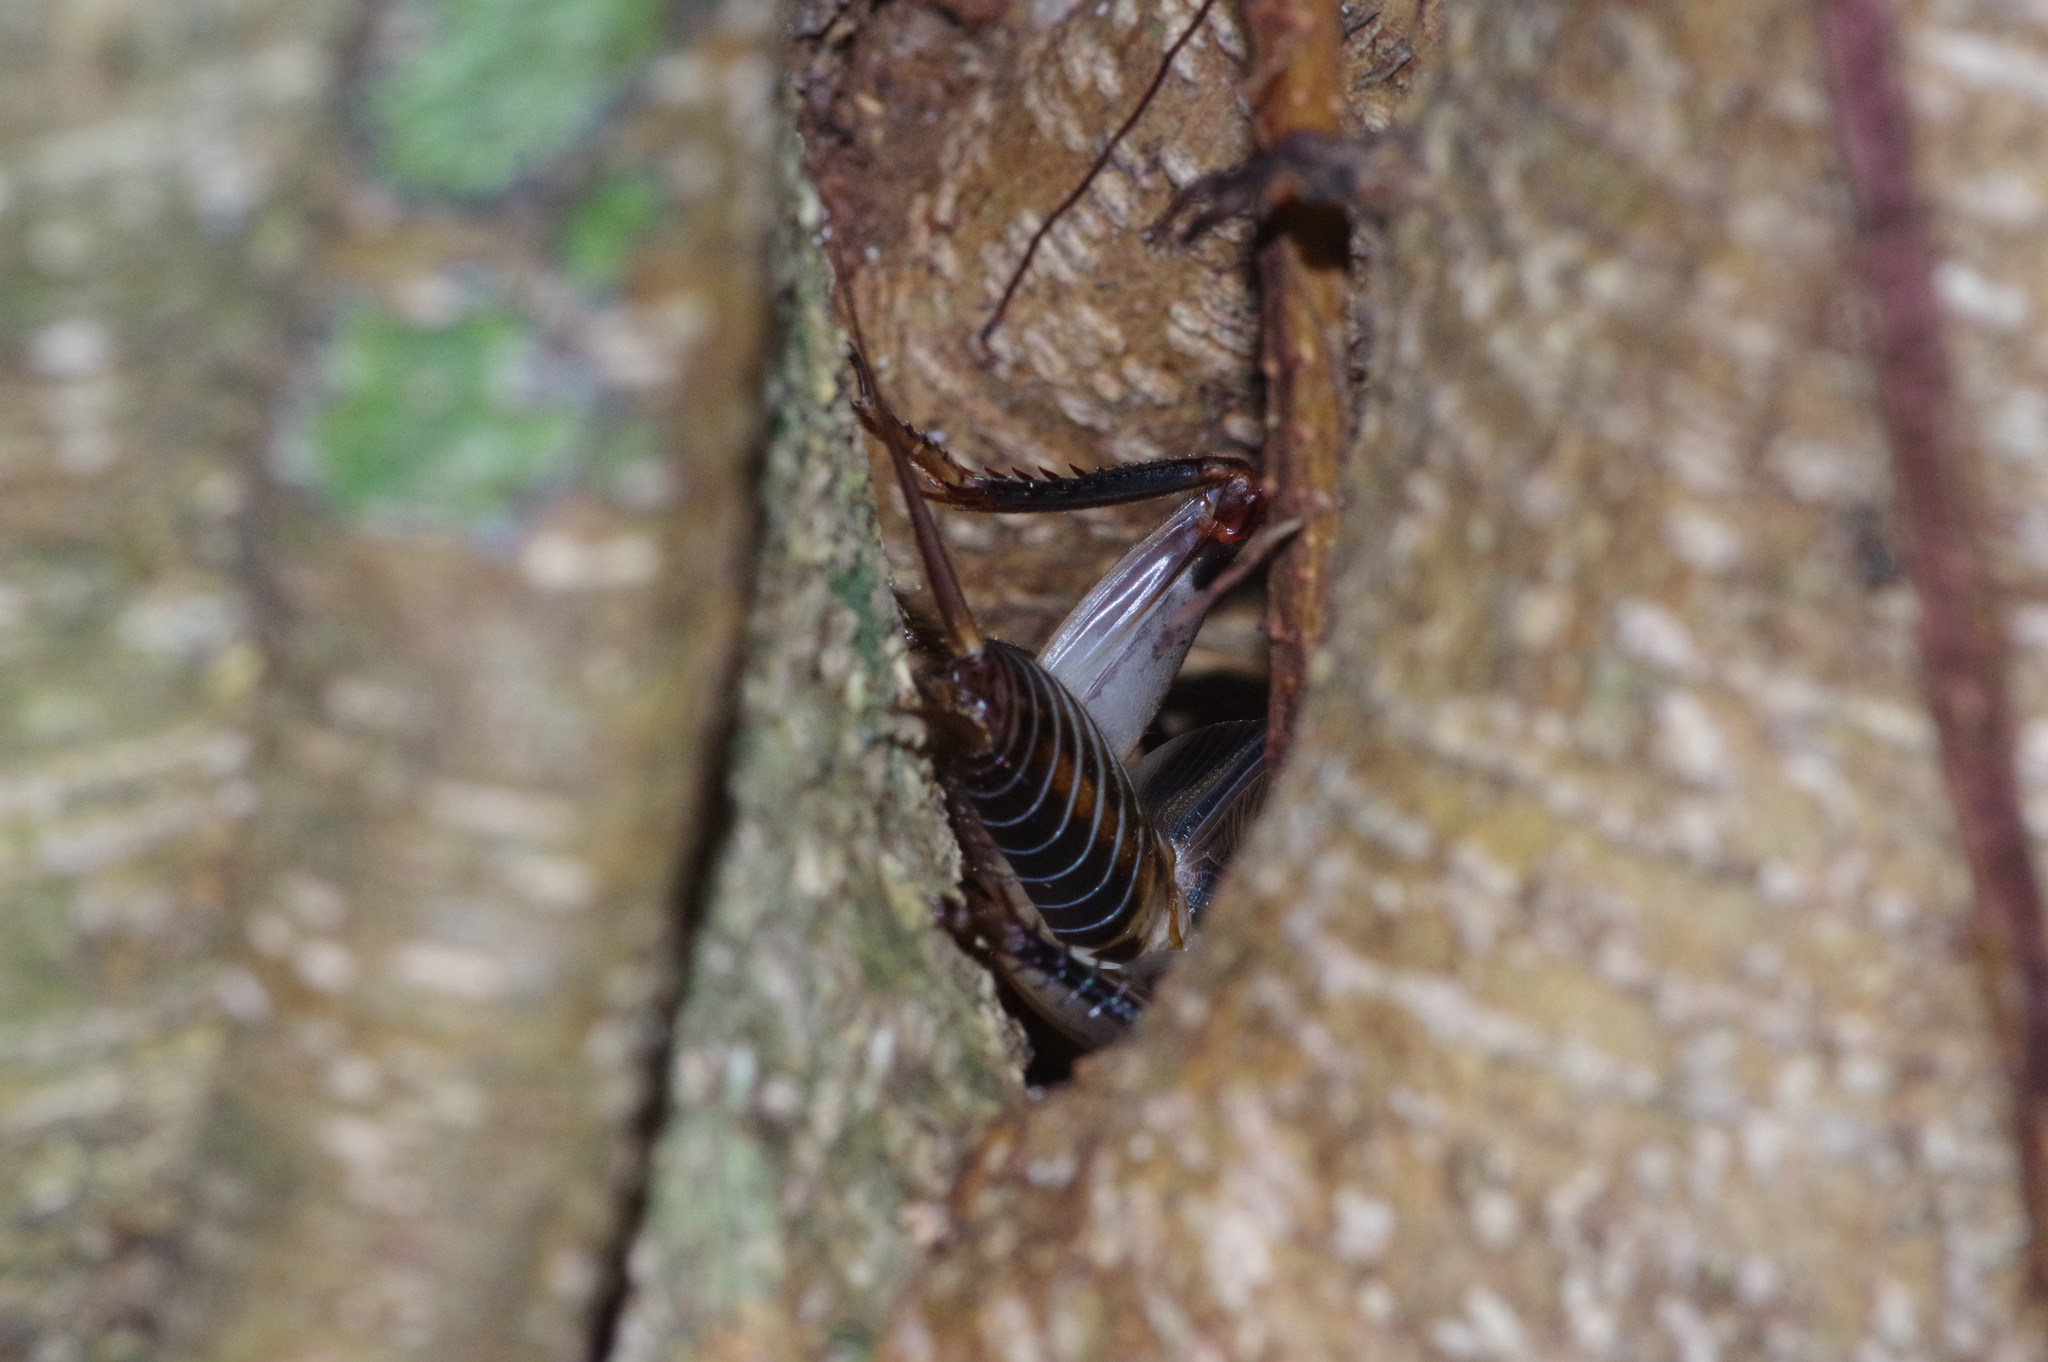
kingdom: Animalia
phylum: Arthropoda
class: Insecta
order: Orthoptera
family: Gryllidae
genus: Duolandrevus
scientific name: Duolandrevus ivani
